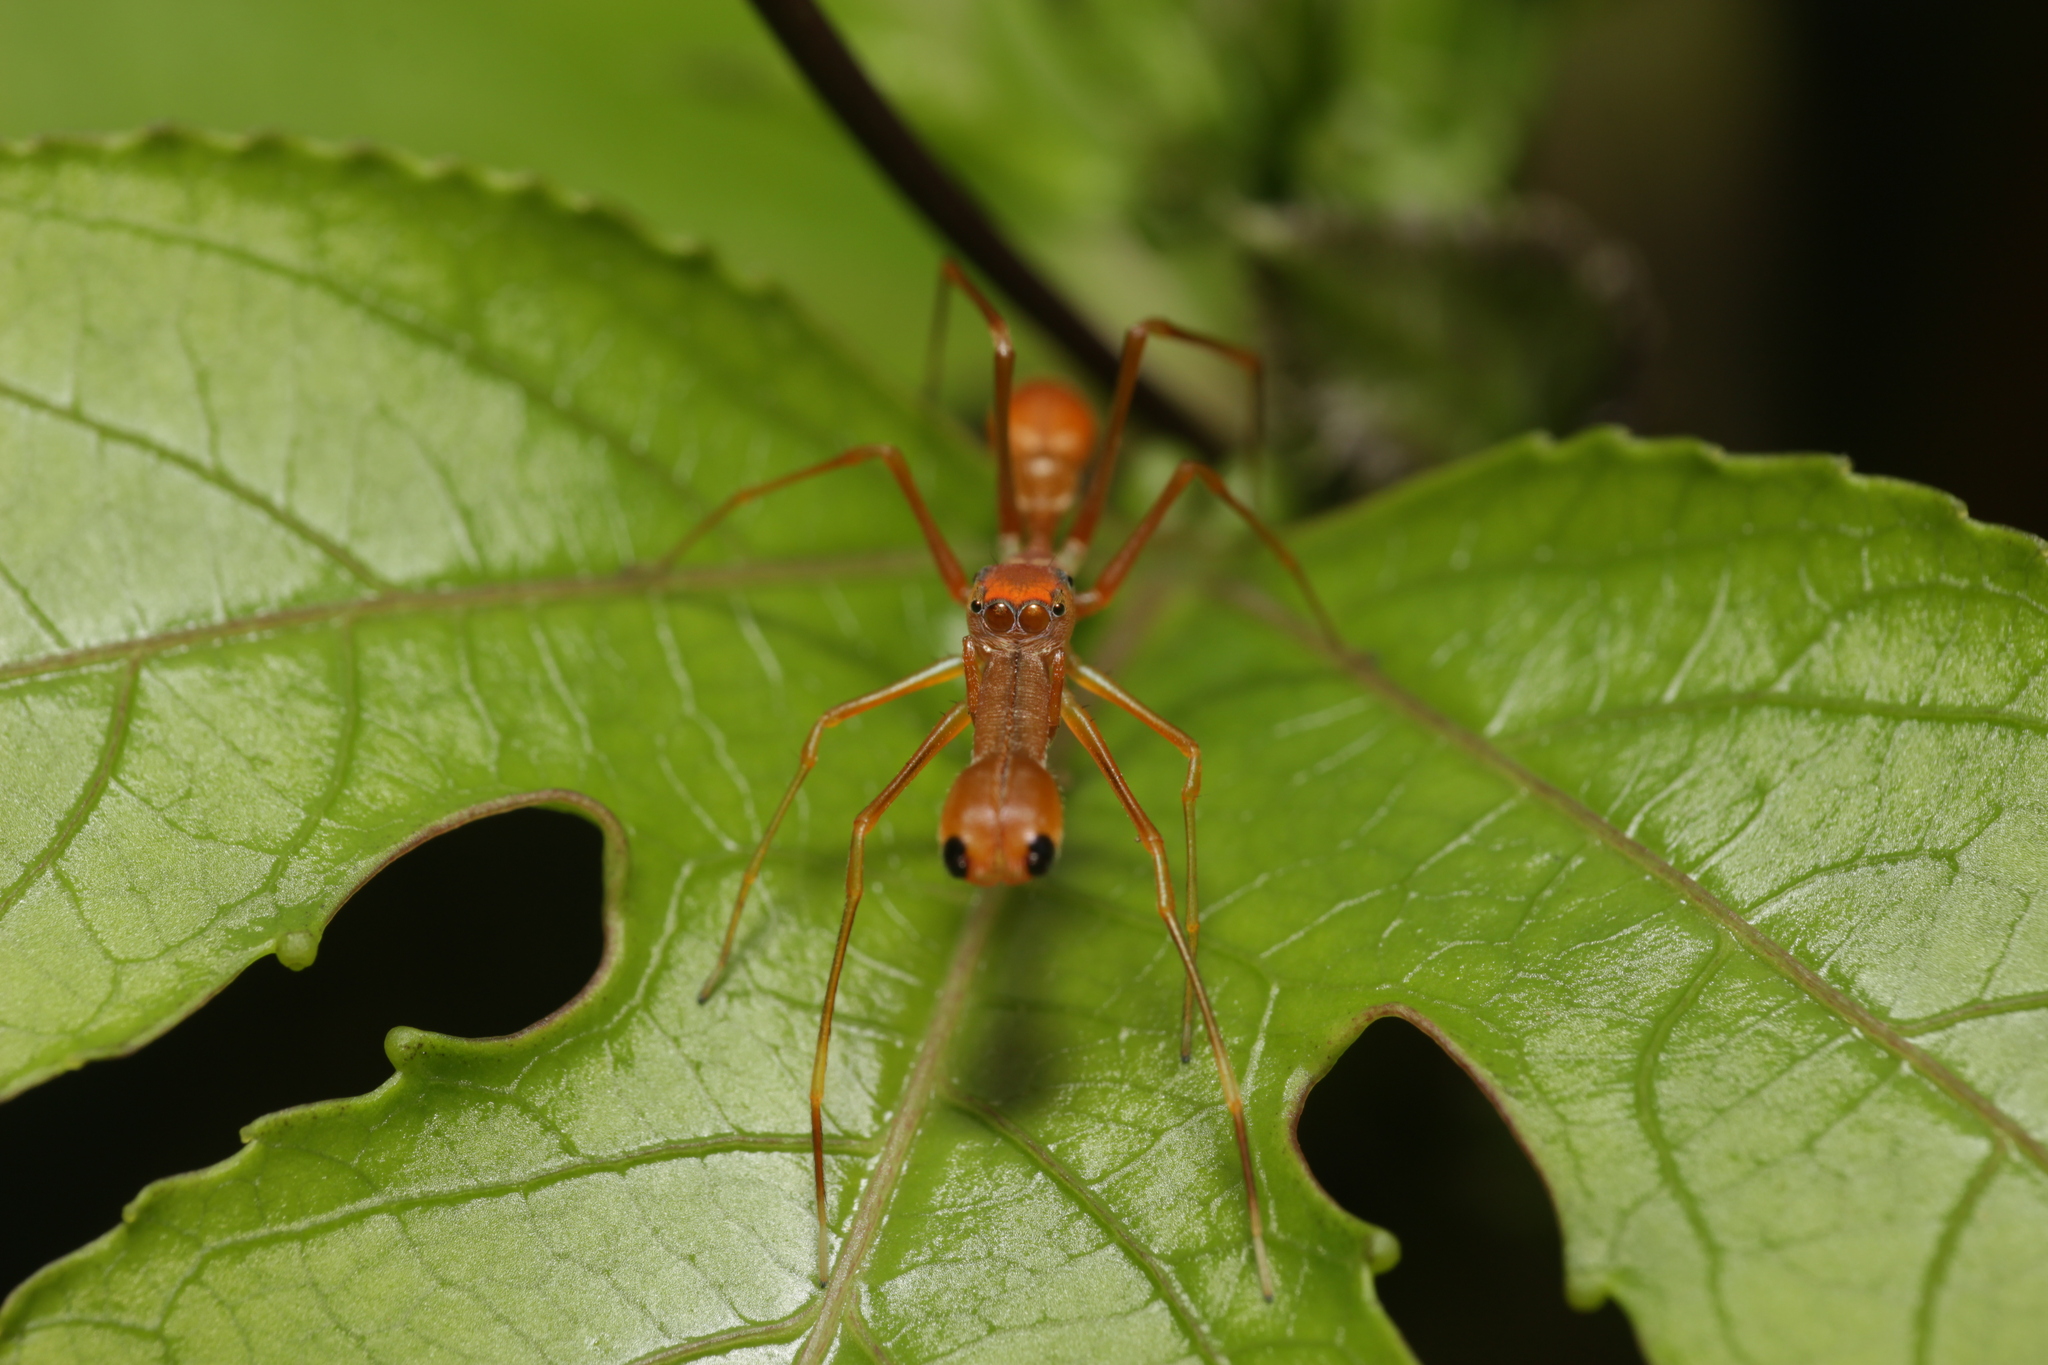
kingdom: Animalia
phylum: Arthropoda
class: Arachnida
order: Araneae
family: Salticidae
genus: Myrmaplata
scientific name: Myrmaplata plataleoides
